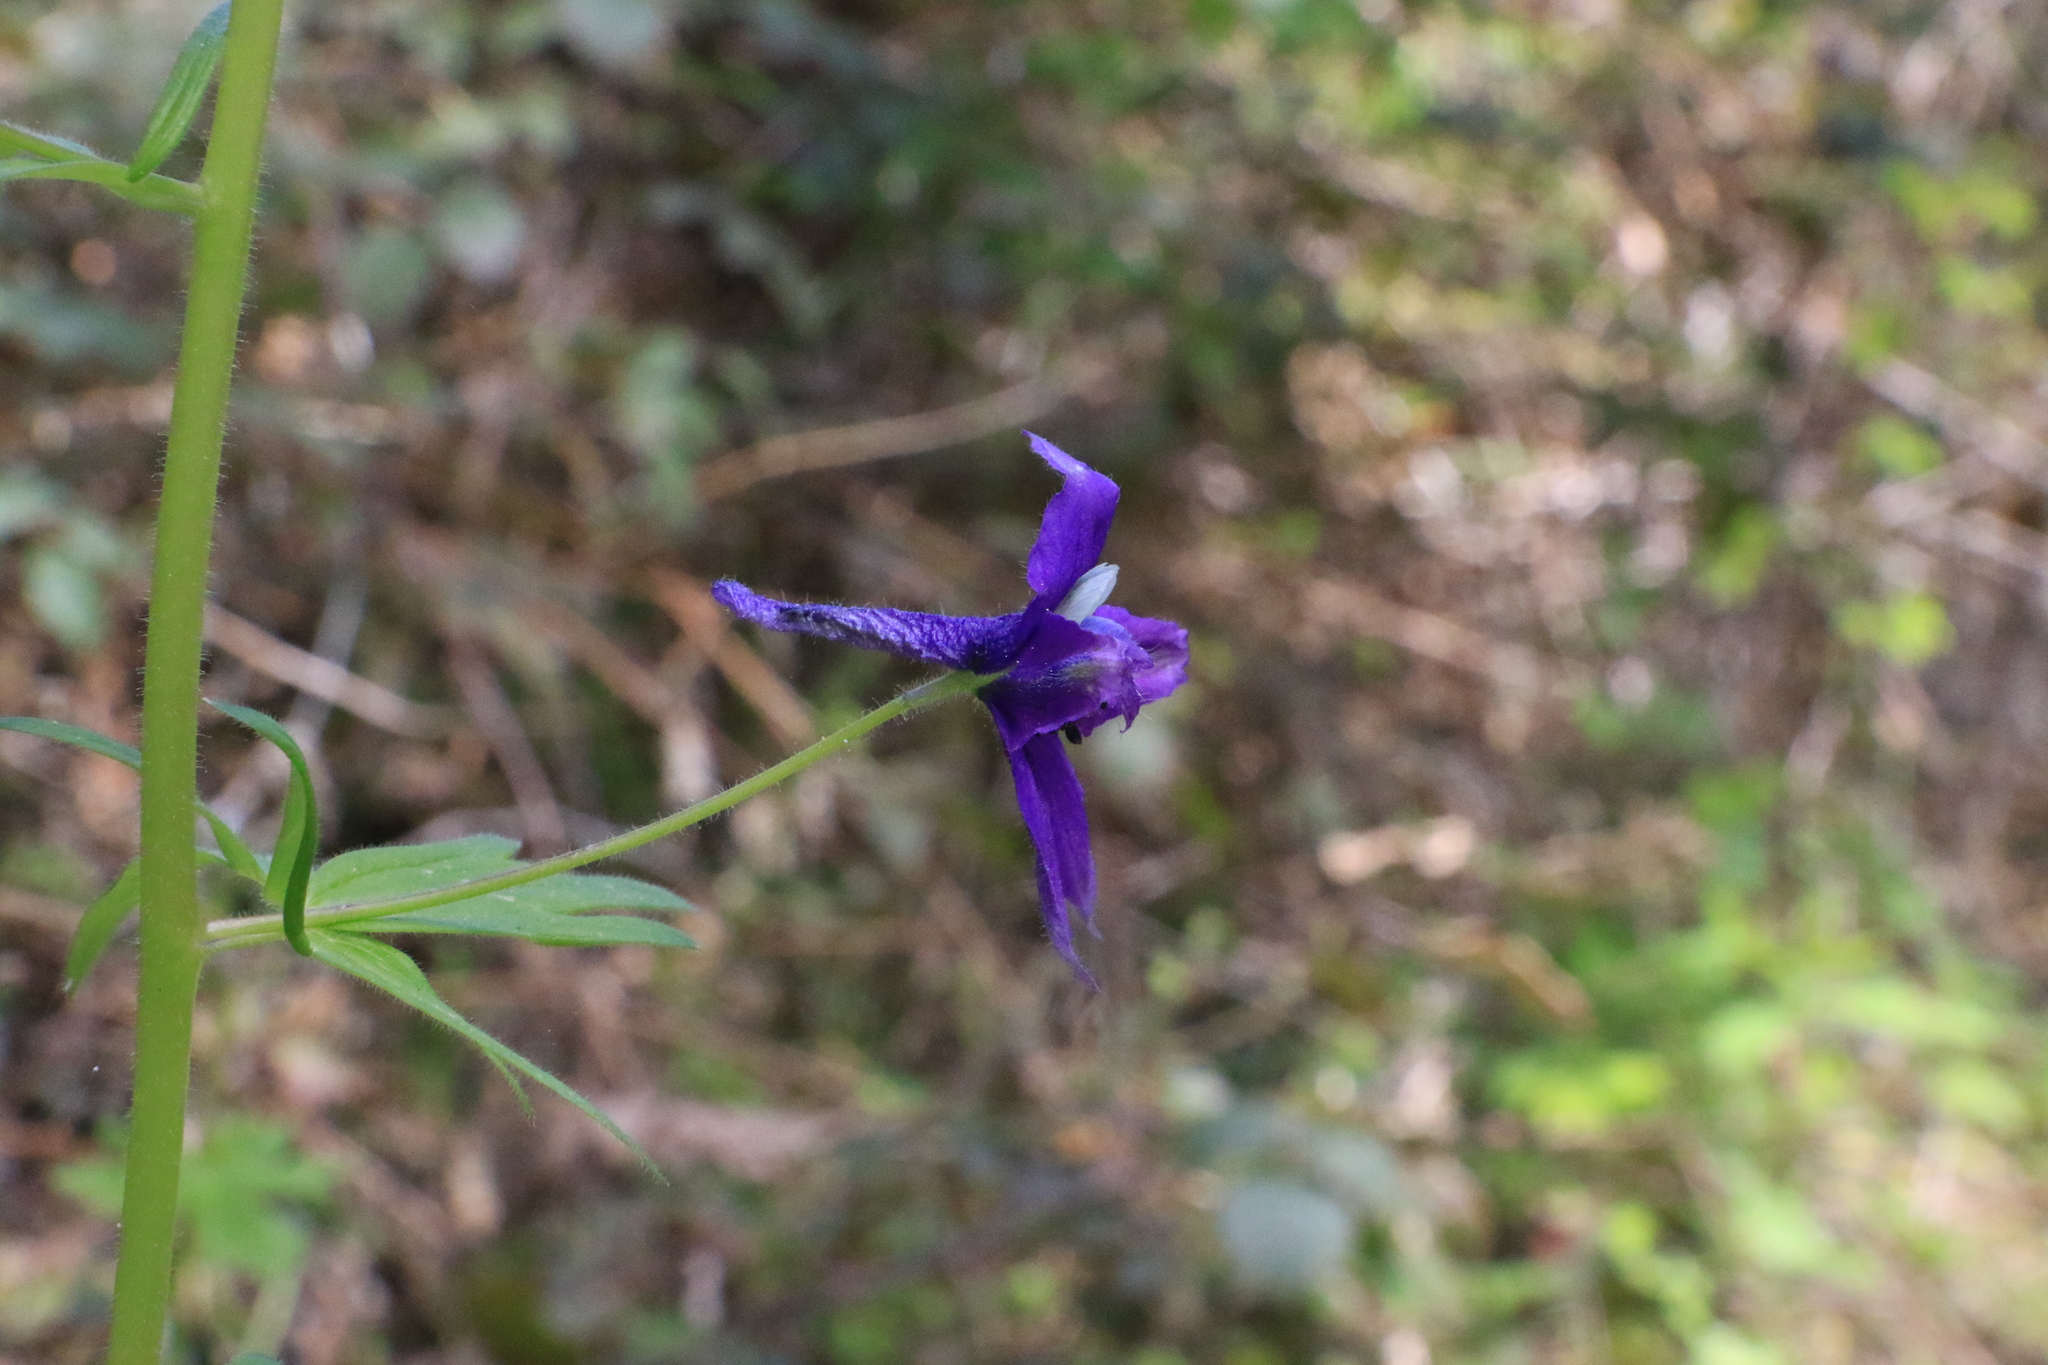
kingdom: Plantae
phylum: Tracheophyta
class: Magnoliopsida
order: Ranunculales
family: Ranunculaceae
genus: Delphinium
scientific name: Delphinium trolliifolium
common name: Cow-poison
